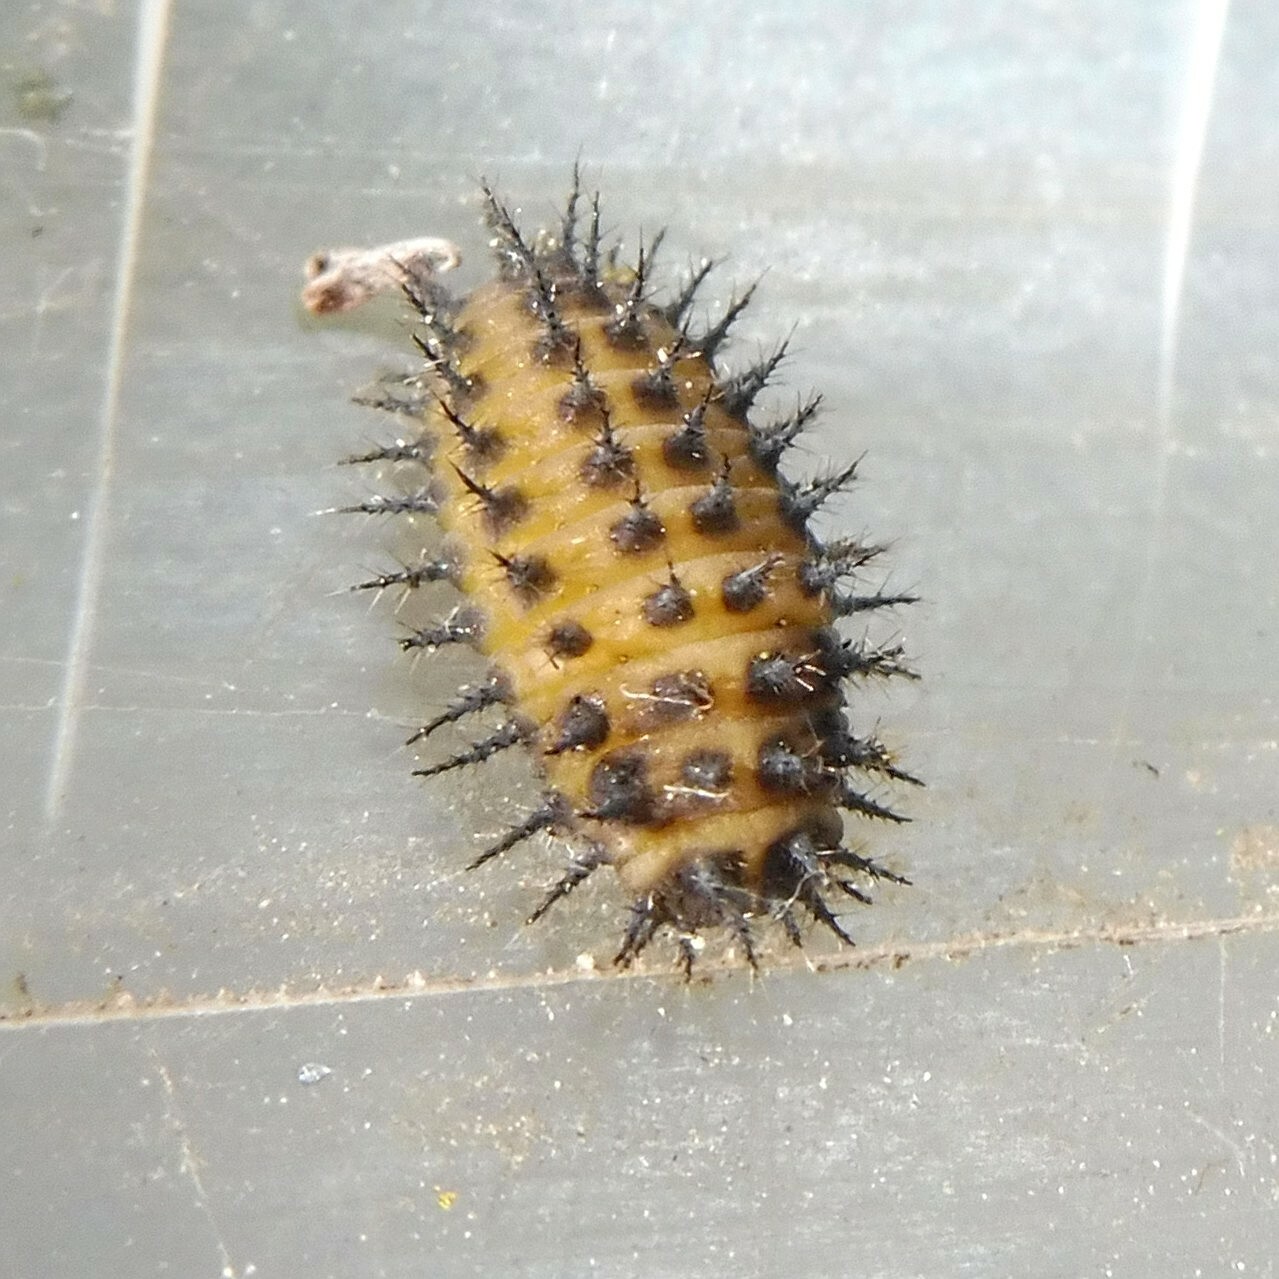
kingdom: Animalia
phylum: Arthropoda
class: Insecta
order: Coleoptera
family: Coccinellidae
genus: Chilocorus
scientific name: Chilocorus renipustulatus
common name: Kidney-spot ladybird
